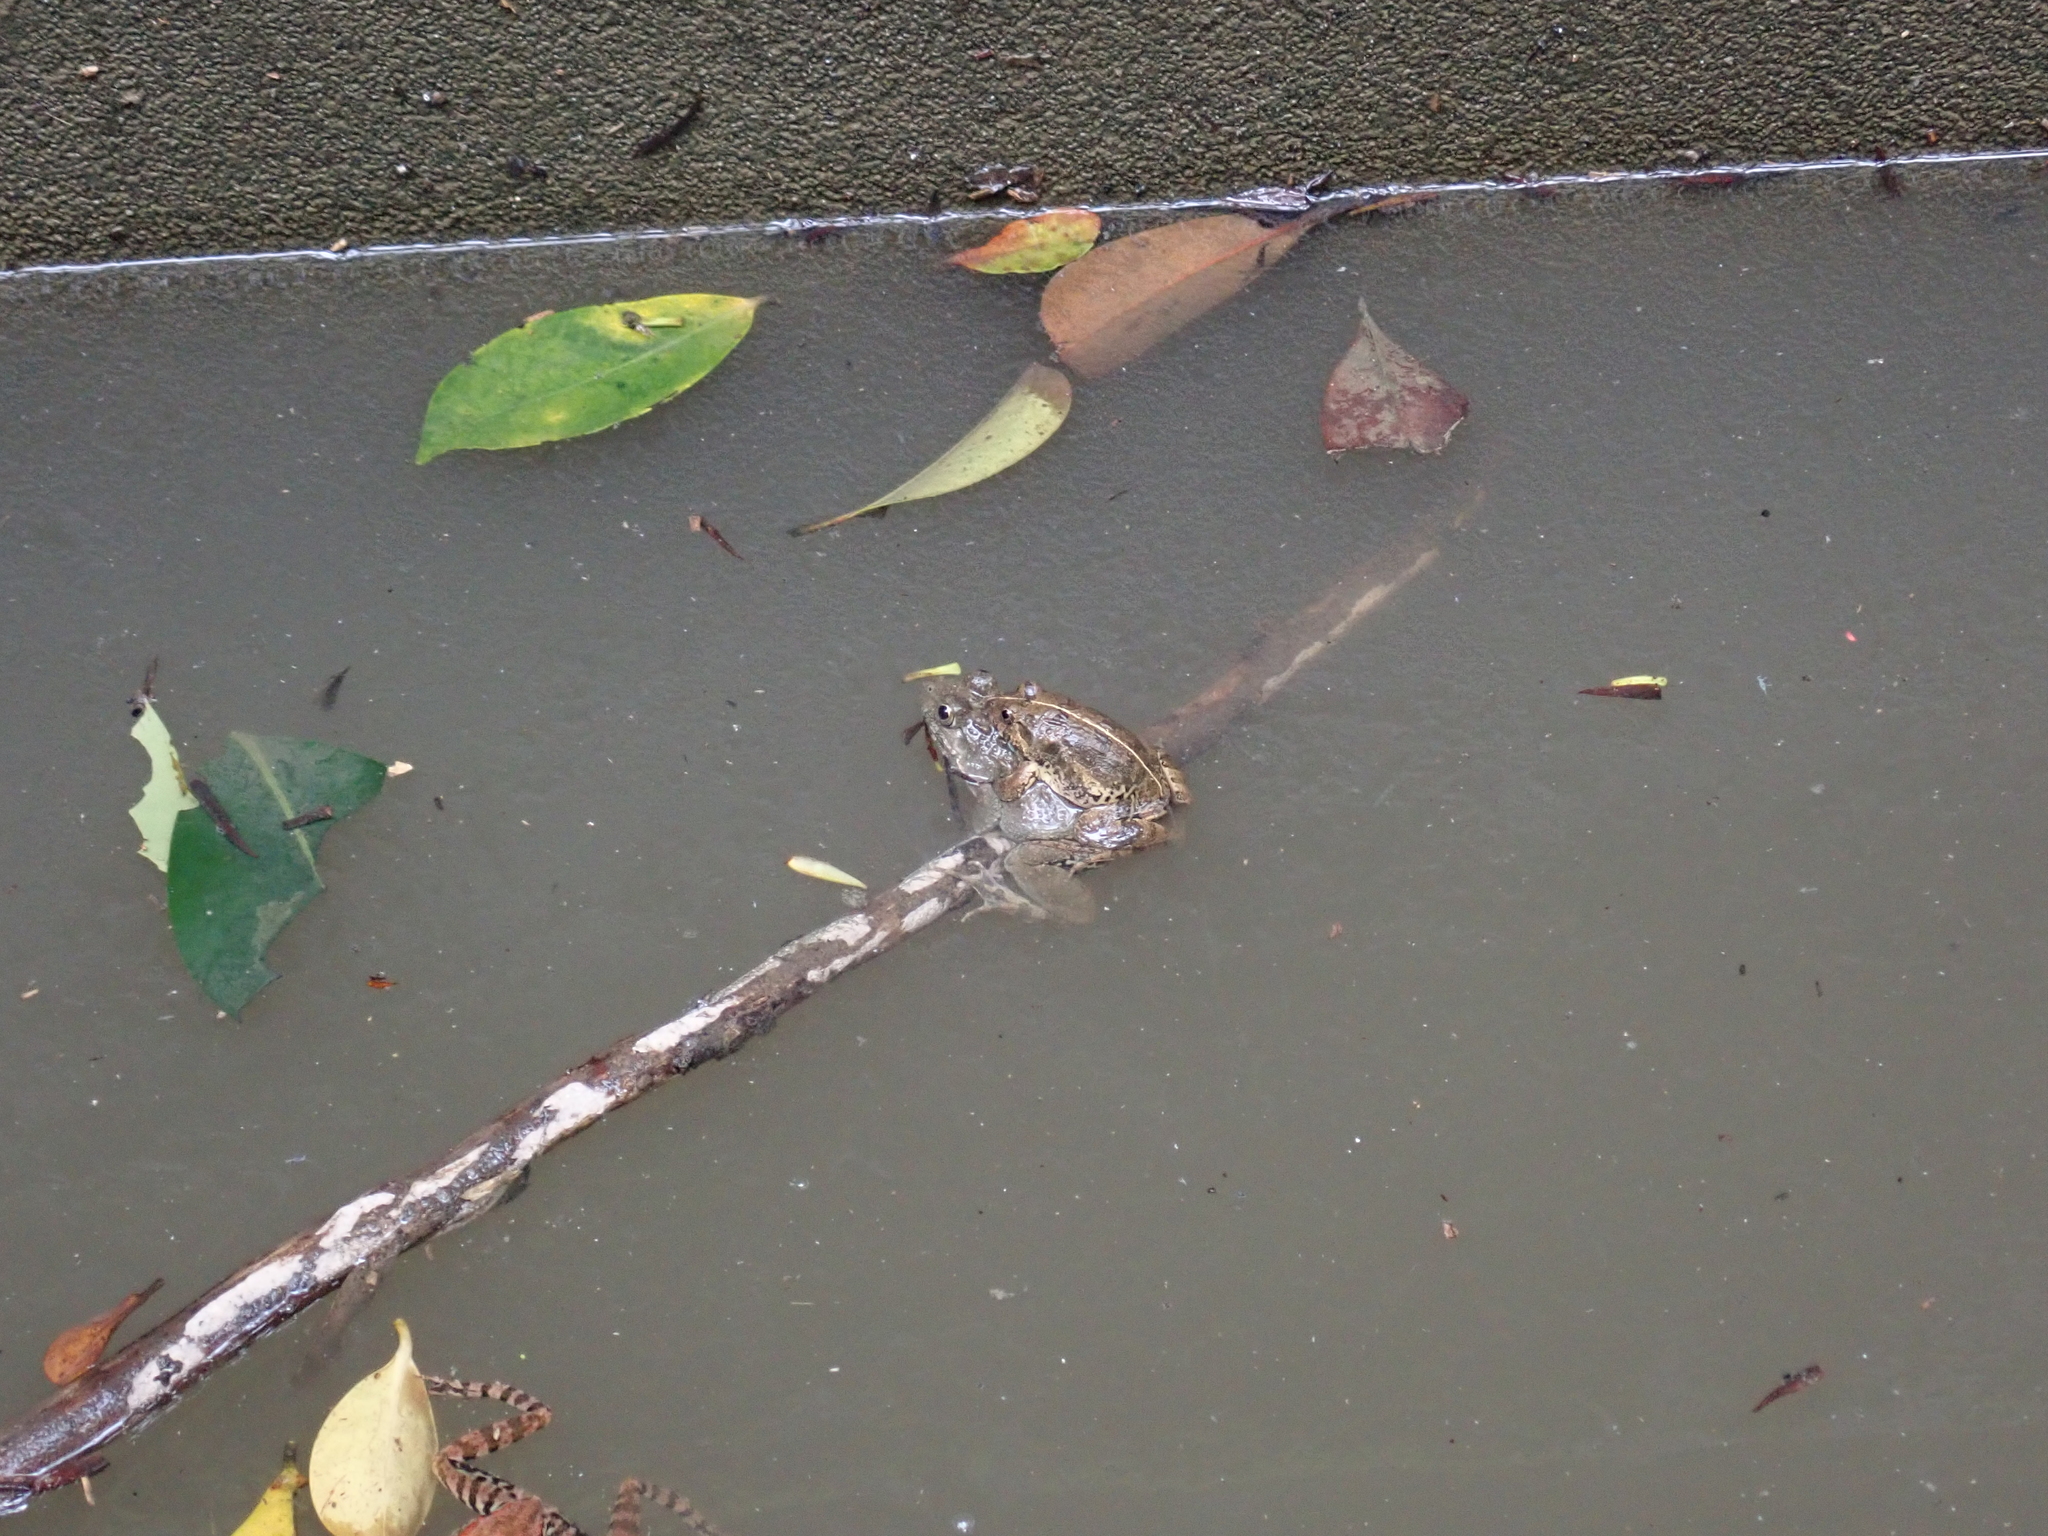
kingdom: Animalia
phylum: Chordata
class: Amphibia
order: Anura
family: Dicroglossidae
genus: Fejervarya
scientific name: Fejervarya limnocharis
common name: Asian grass frog/common pond frog/field frog/grass frog/indian rice frog
